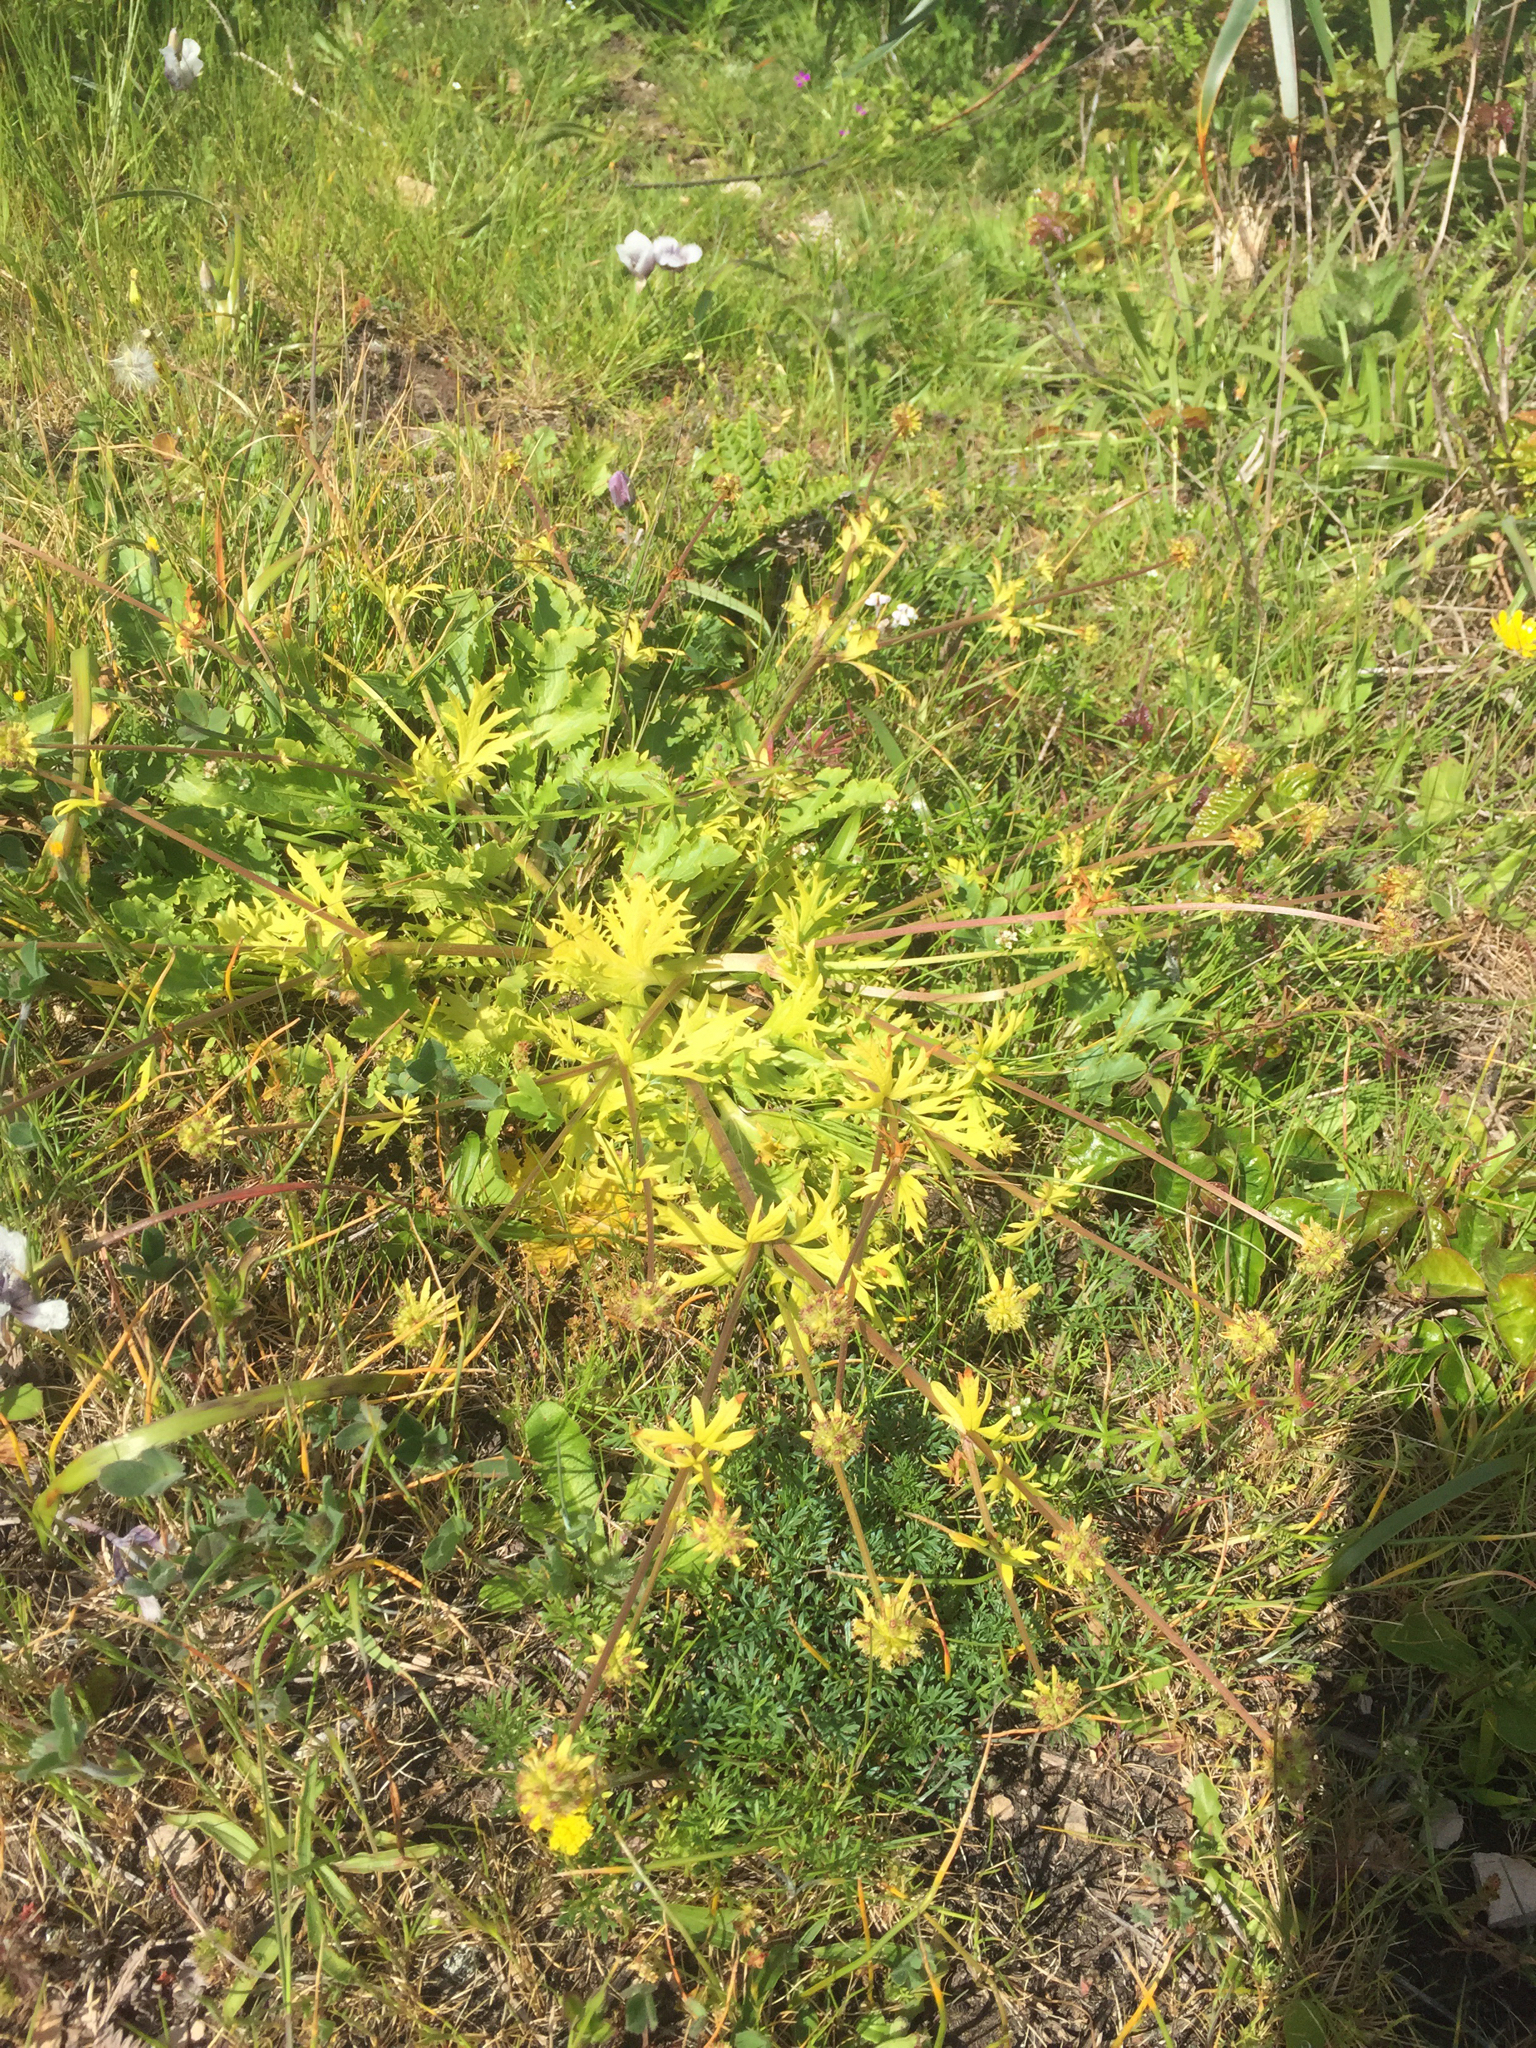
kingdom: Plantae
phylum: Tracheophyta
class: Magnoliopsida
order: Apiales
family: Apiaceae
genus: Sanicula
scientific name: Sanicula arctopoides
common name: Footsteps-of-spring
